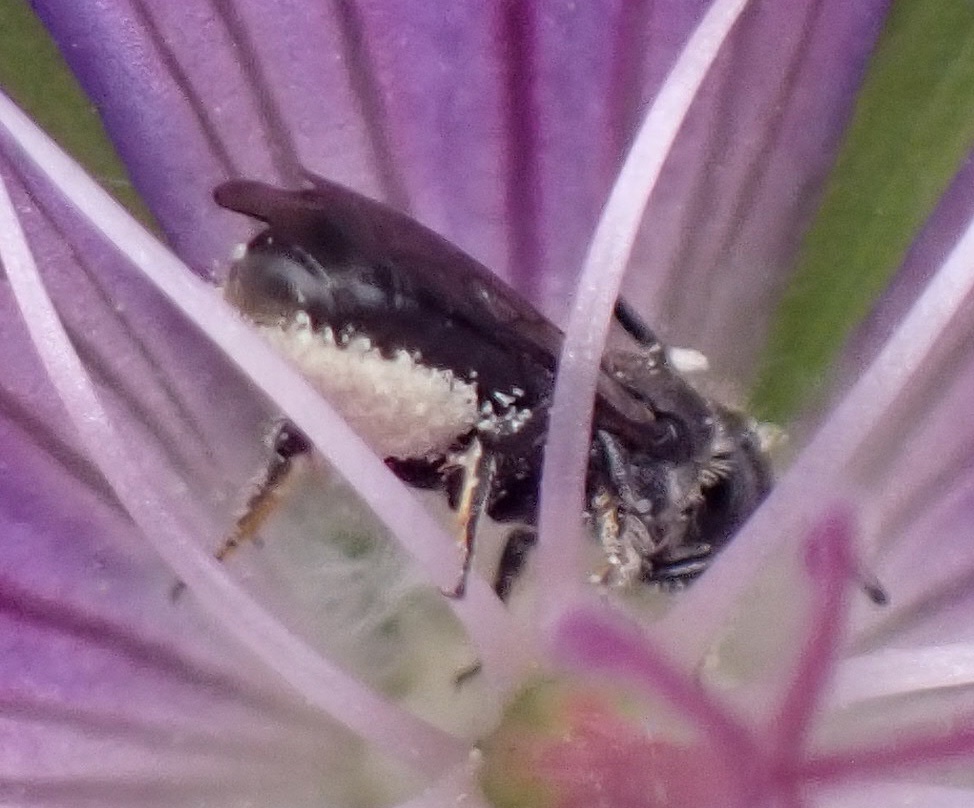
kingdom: Animalia
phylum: Arthropoda
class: Insecta
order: Hymenoptera
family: Megachilidae
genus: Chelostoma
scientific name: Chelostoma campanularum
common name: Small scissor bee
